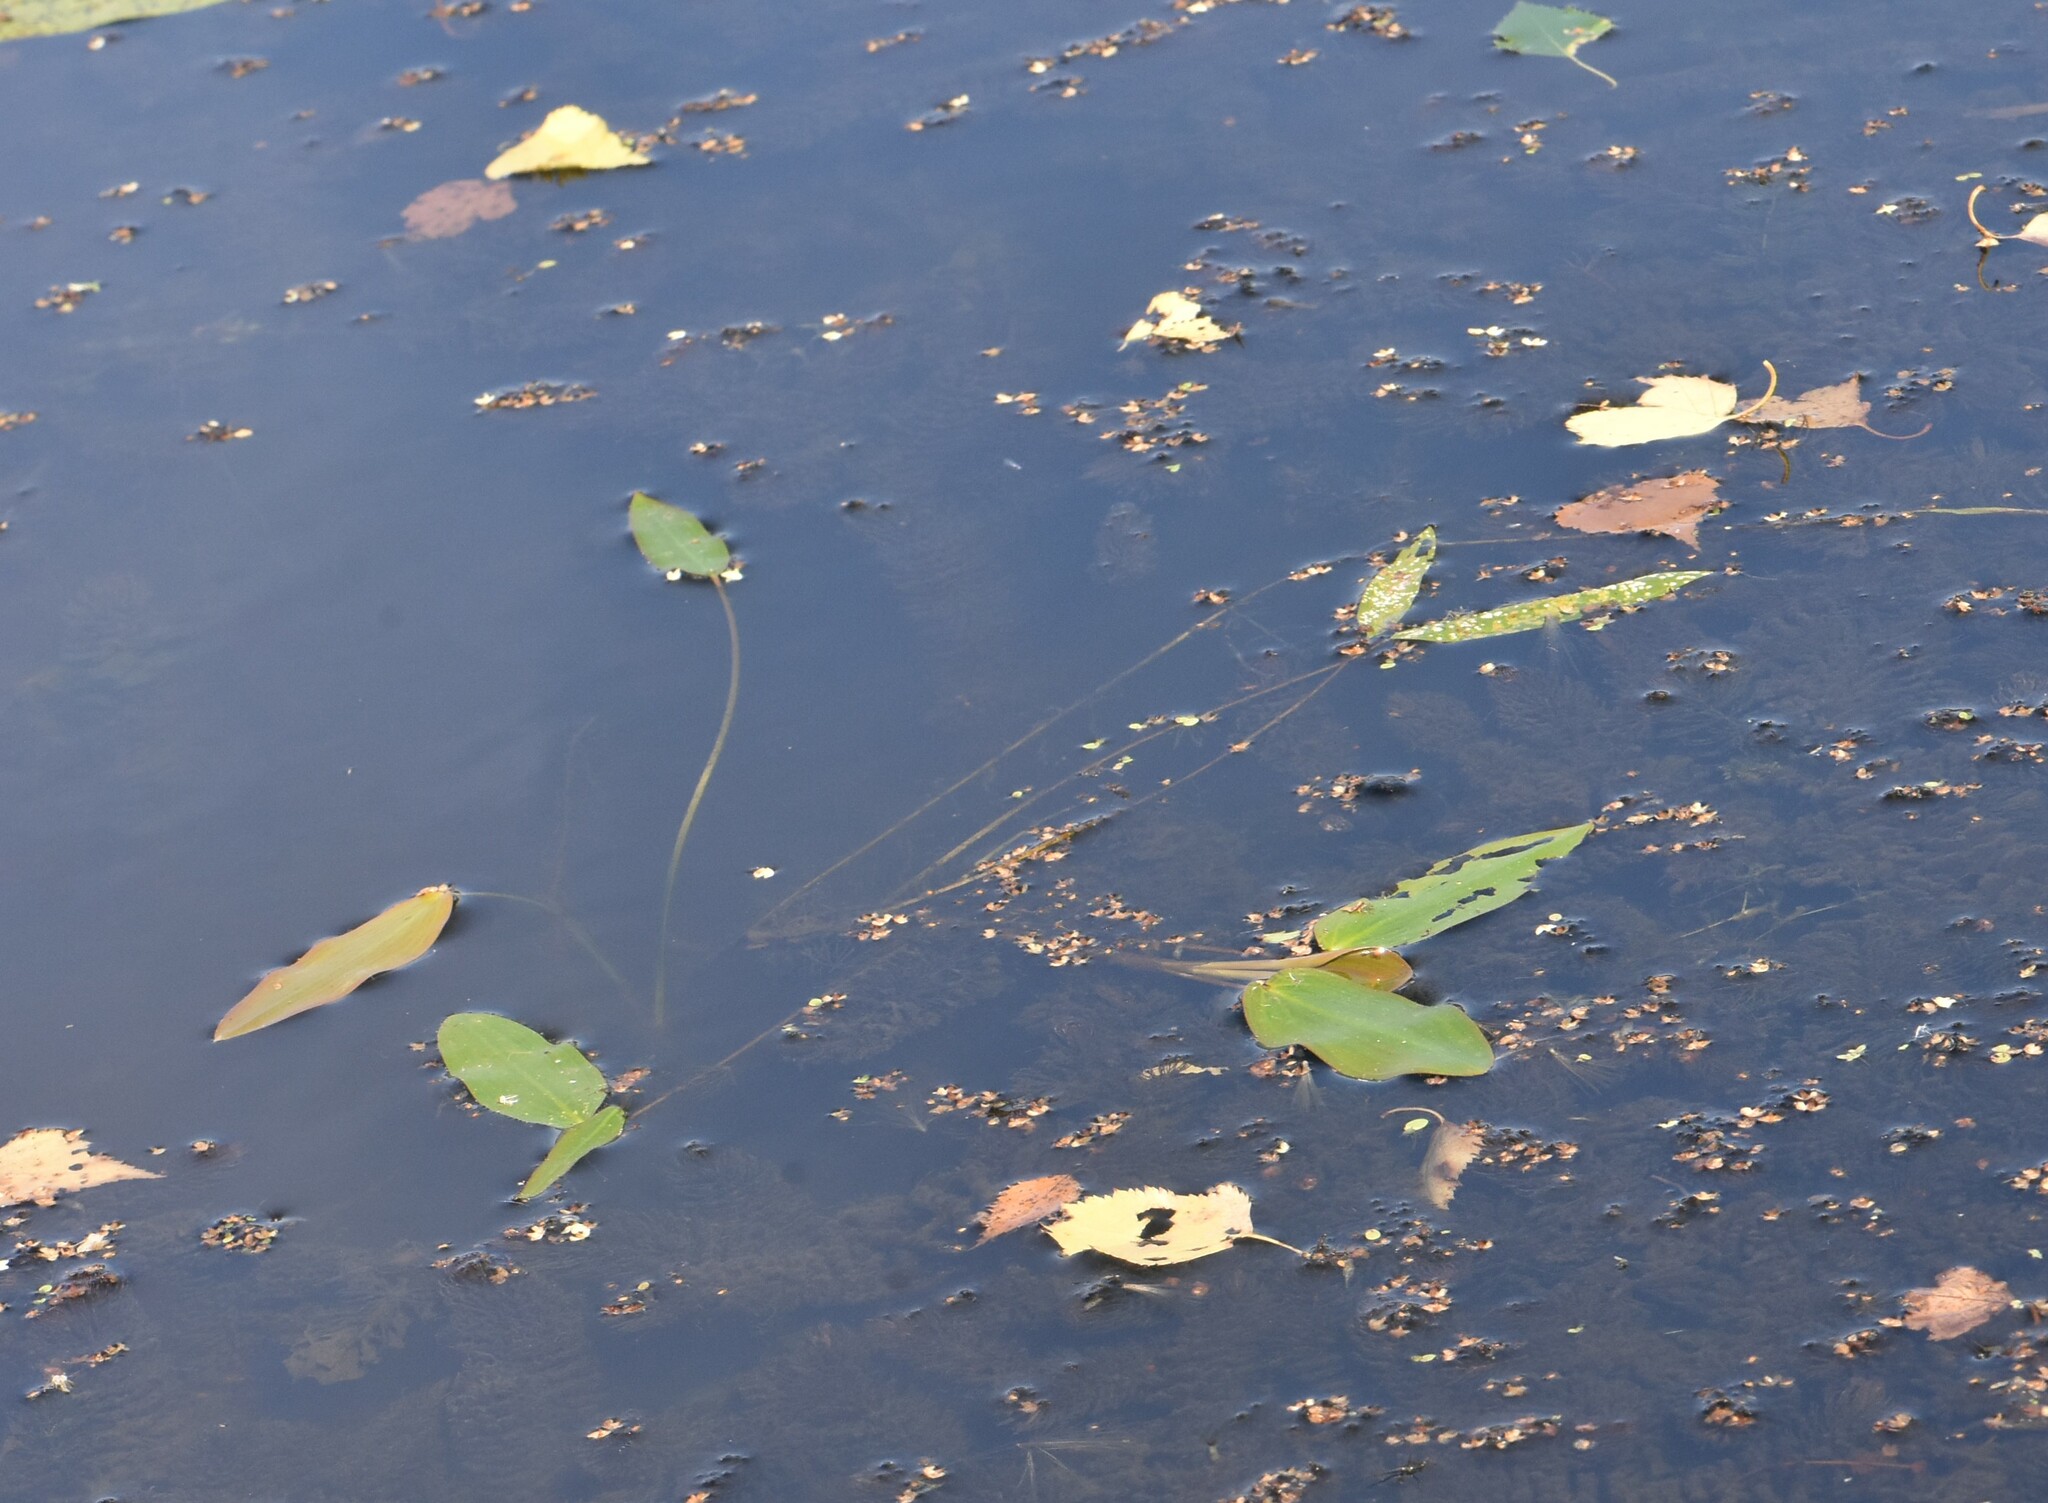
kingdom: Plantae
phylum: Tracheophyta
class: Liliopsida
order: Alismatales
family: Potamogetonaceae
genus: Potamogeton
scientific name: Potamogeton natans
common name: Broad-leaved pondweed
